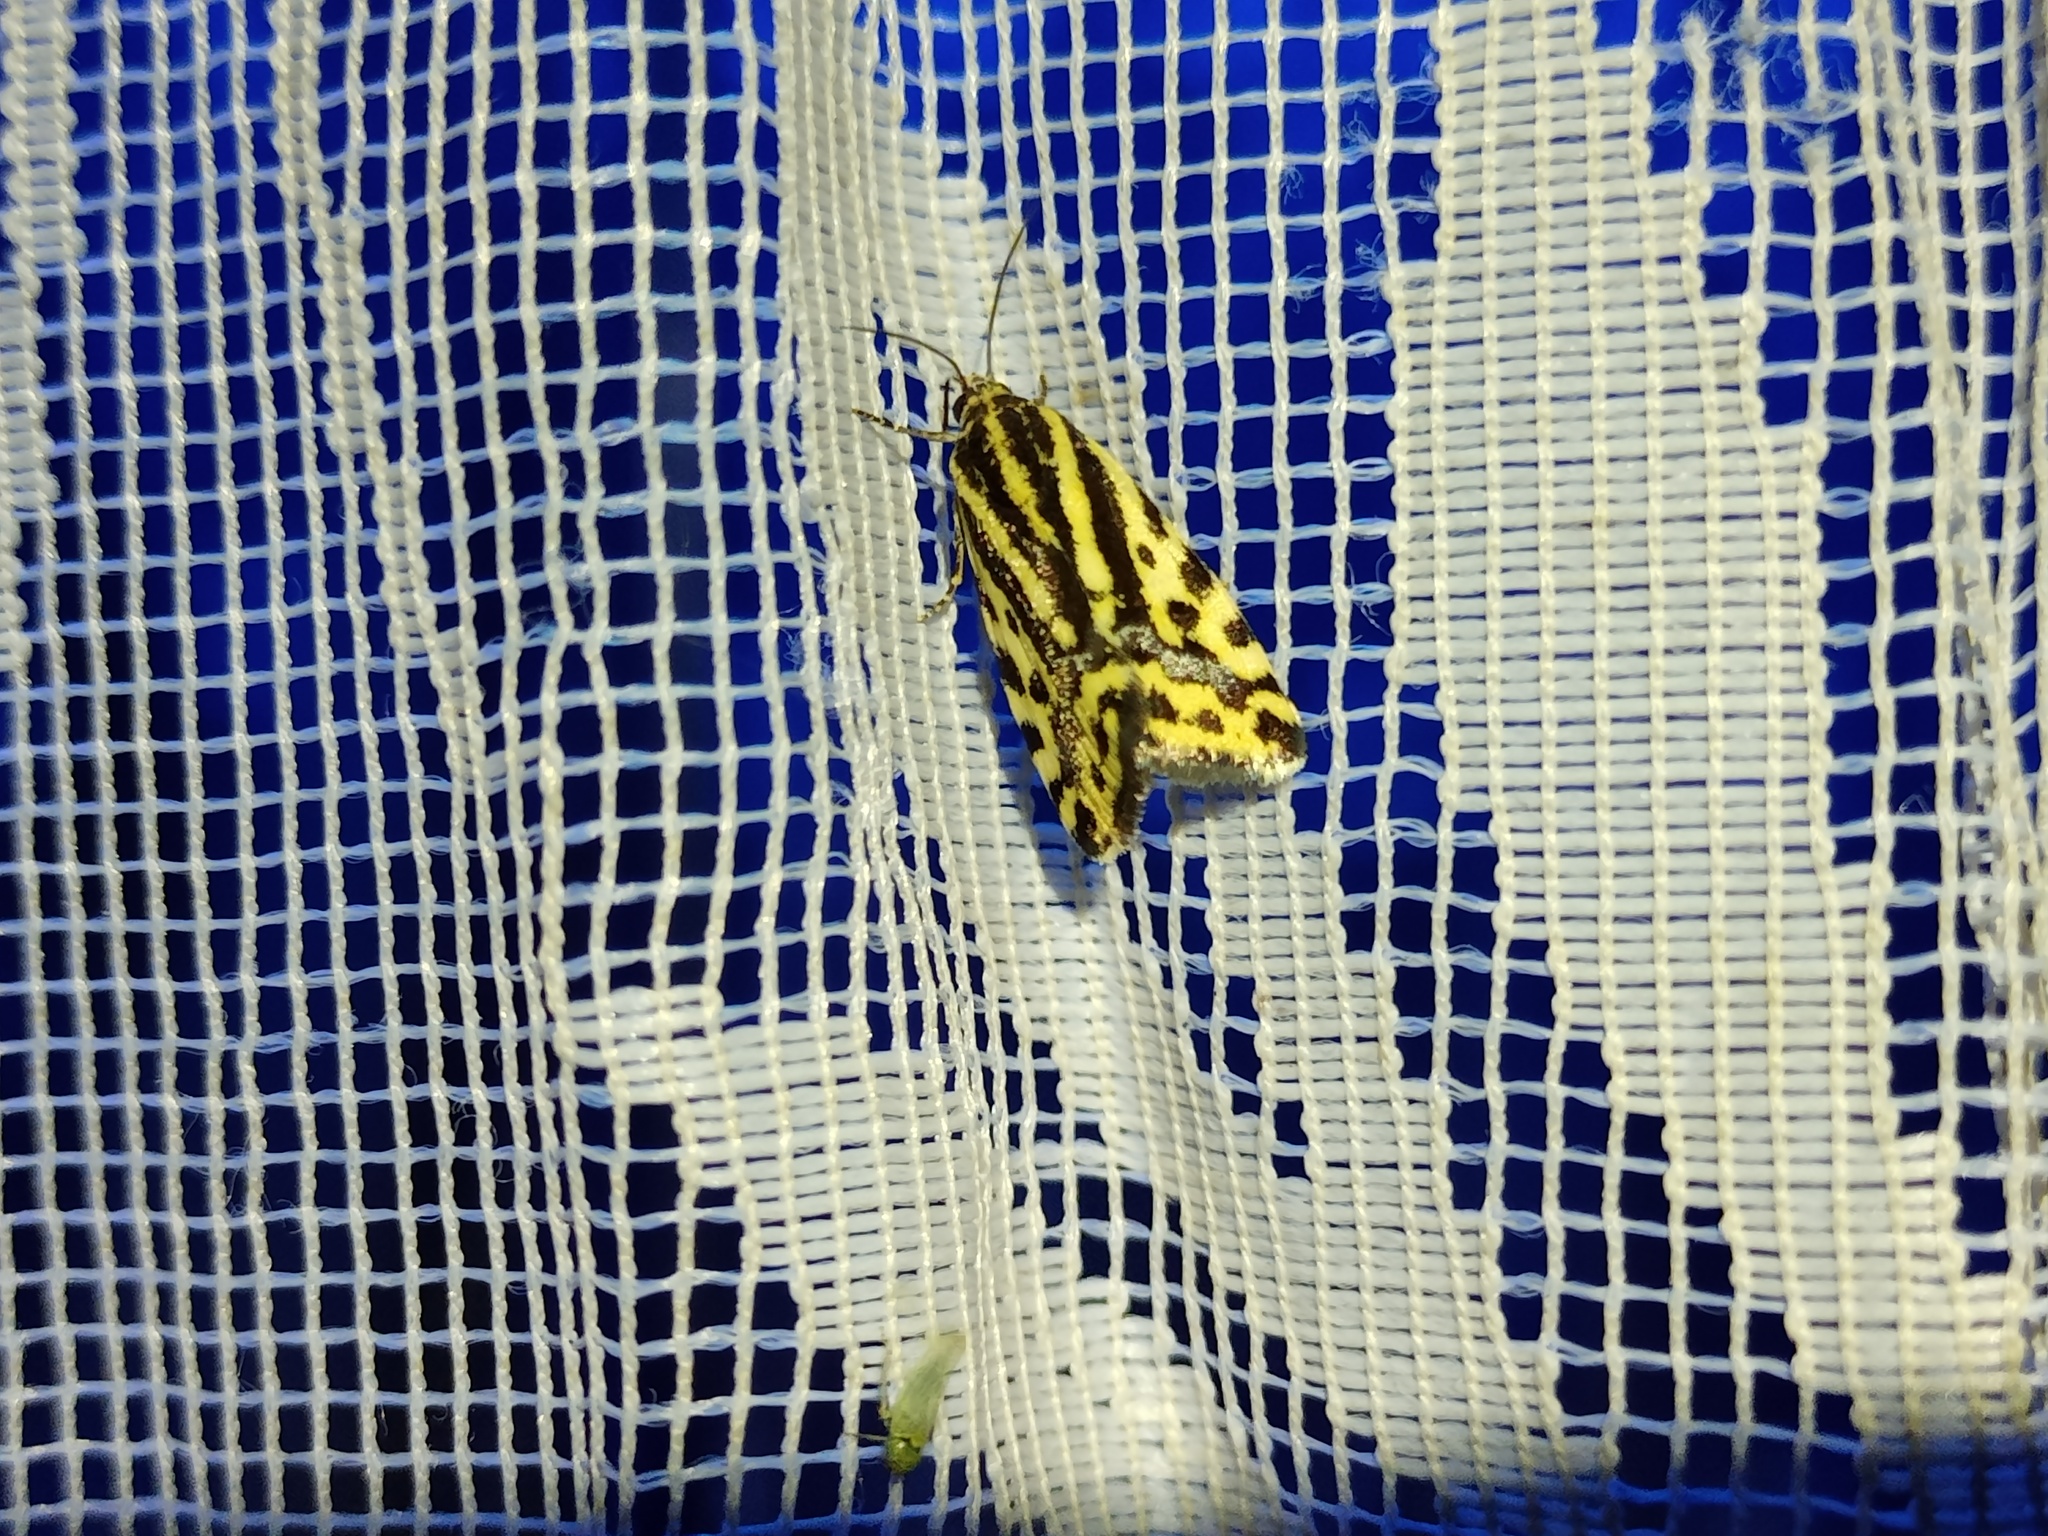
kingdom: Animalia
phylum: Arthropoda
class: Insecta
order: Lepidoptera
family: Noctuidae
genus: Acontia
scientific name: Acontia trabealis
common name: Spotted sulphur
